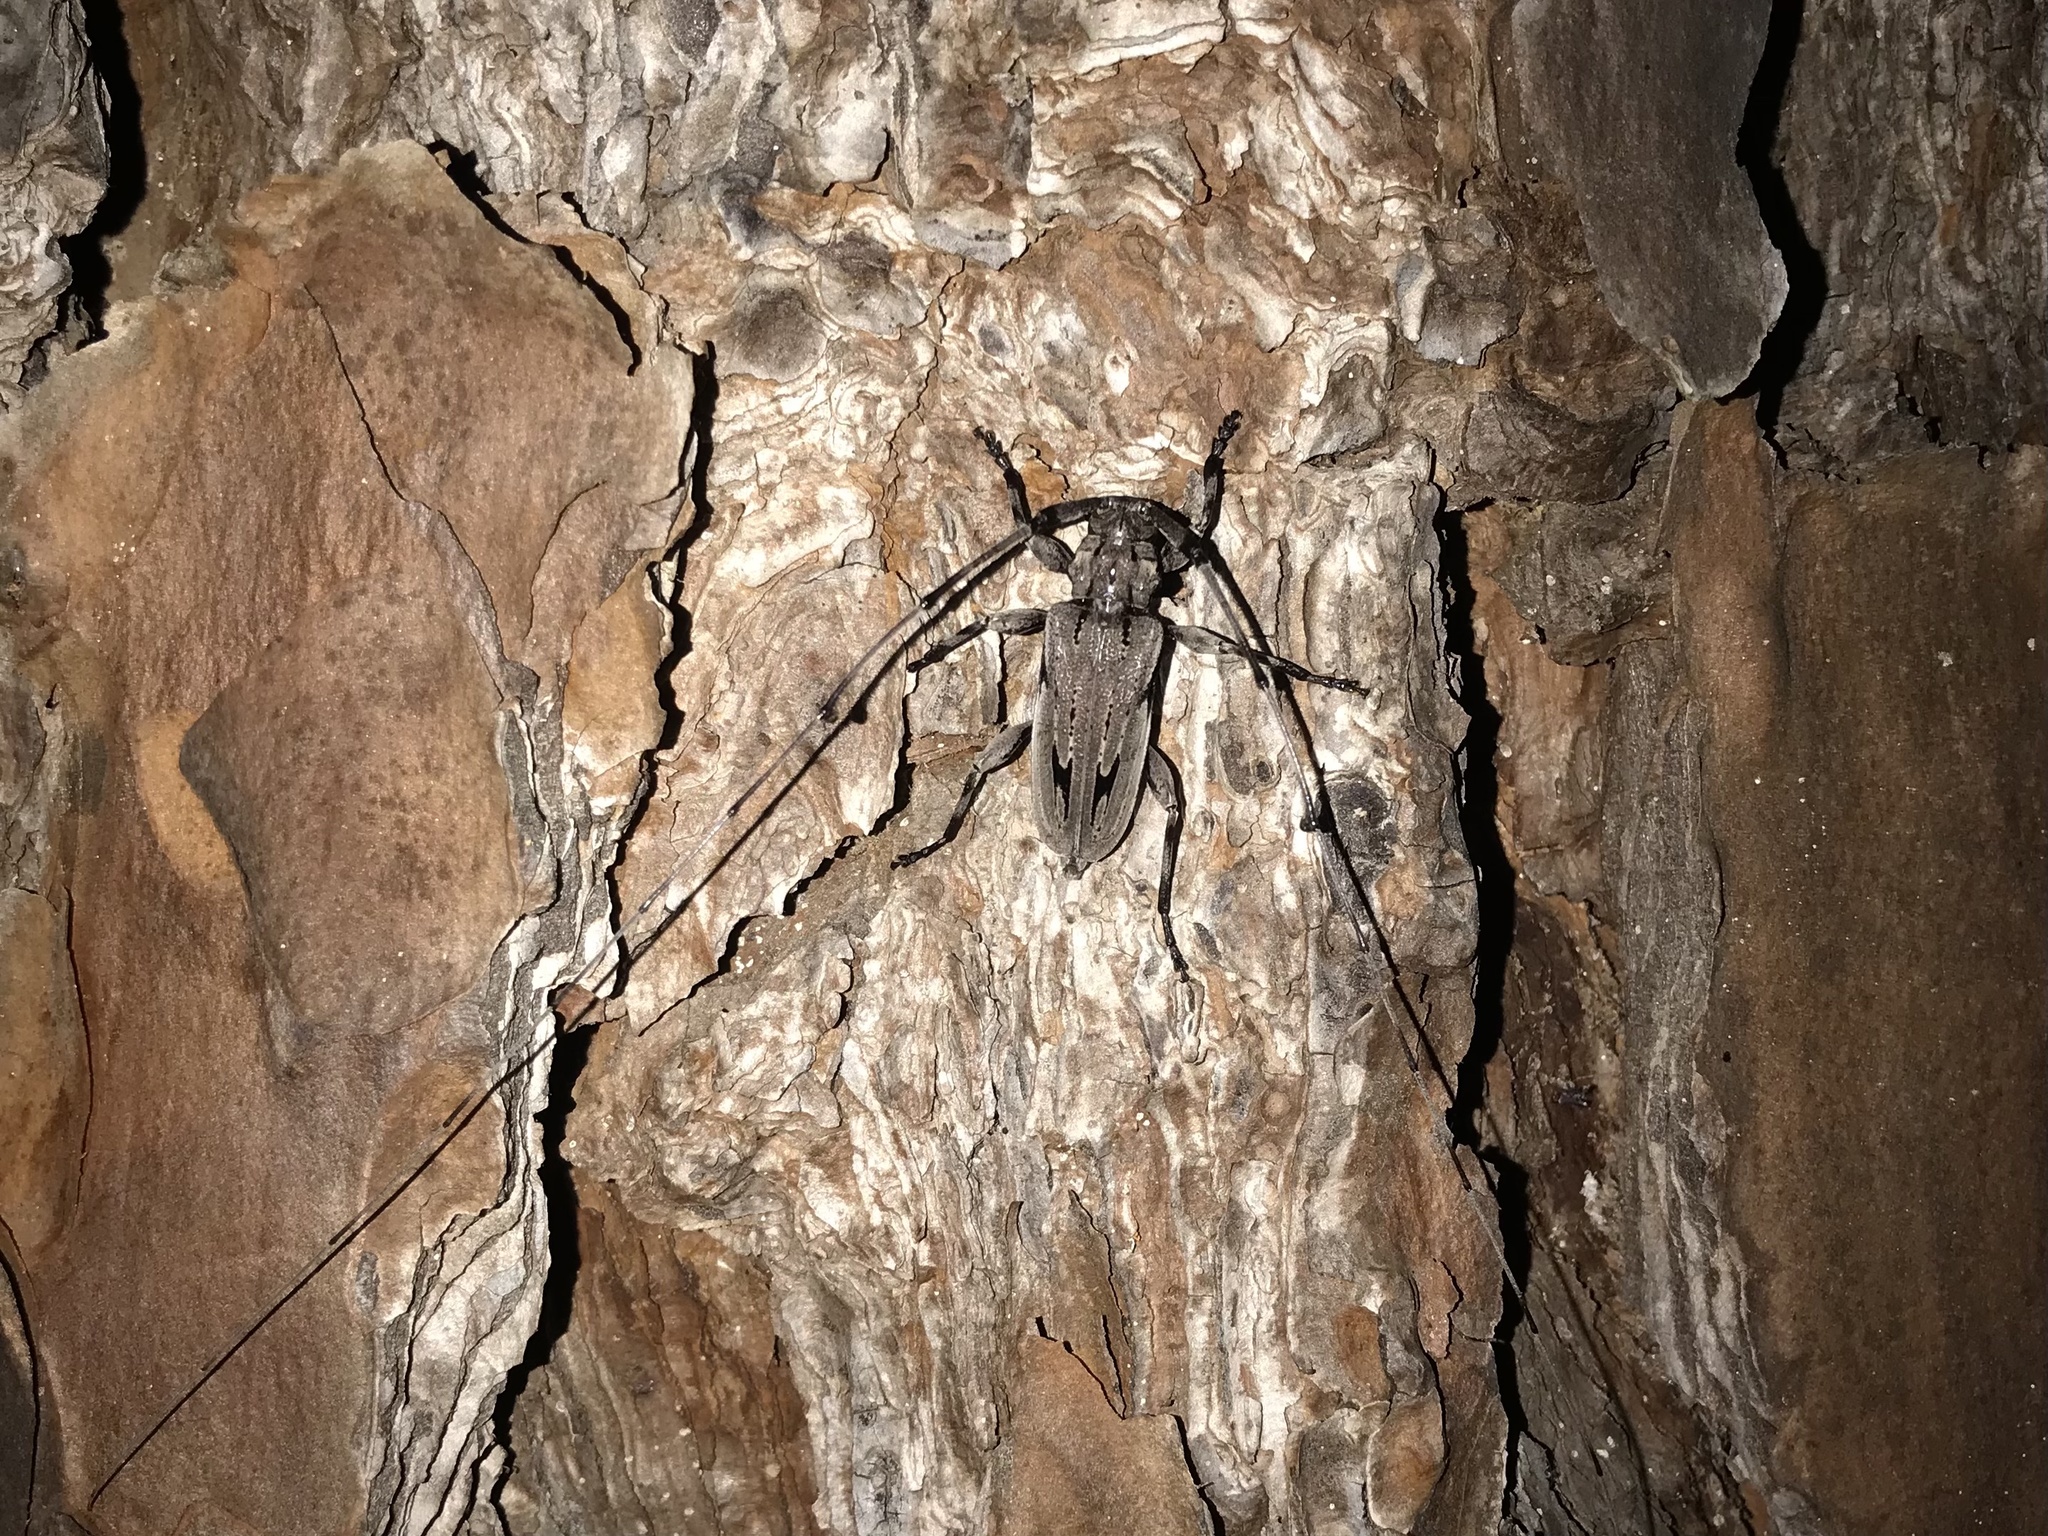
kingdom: Animalia
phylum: Arthropoda
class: Insecta
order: Coleoptera
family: Cerambycidae
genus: Acanthocinus
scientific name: Acanthocinus nodosus
